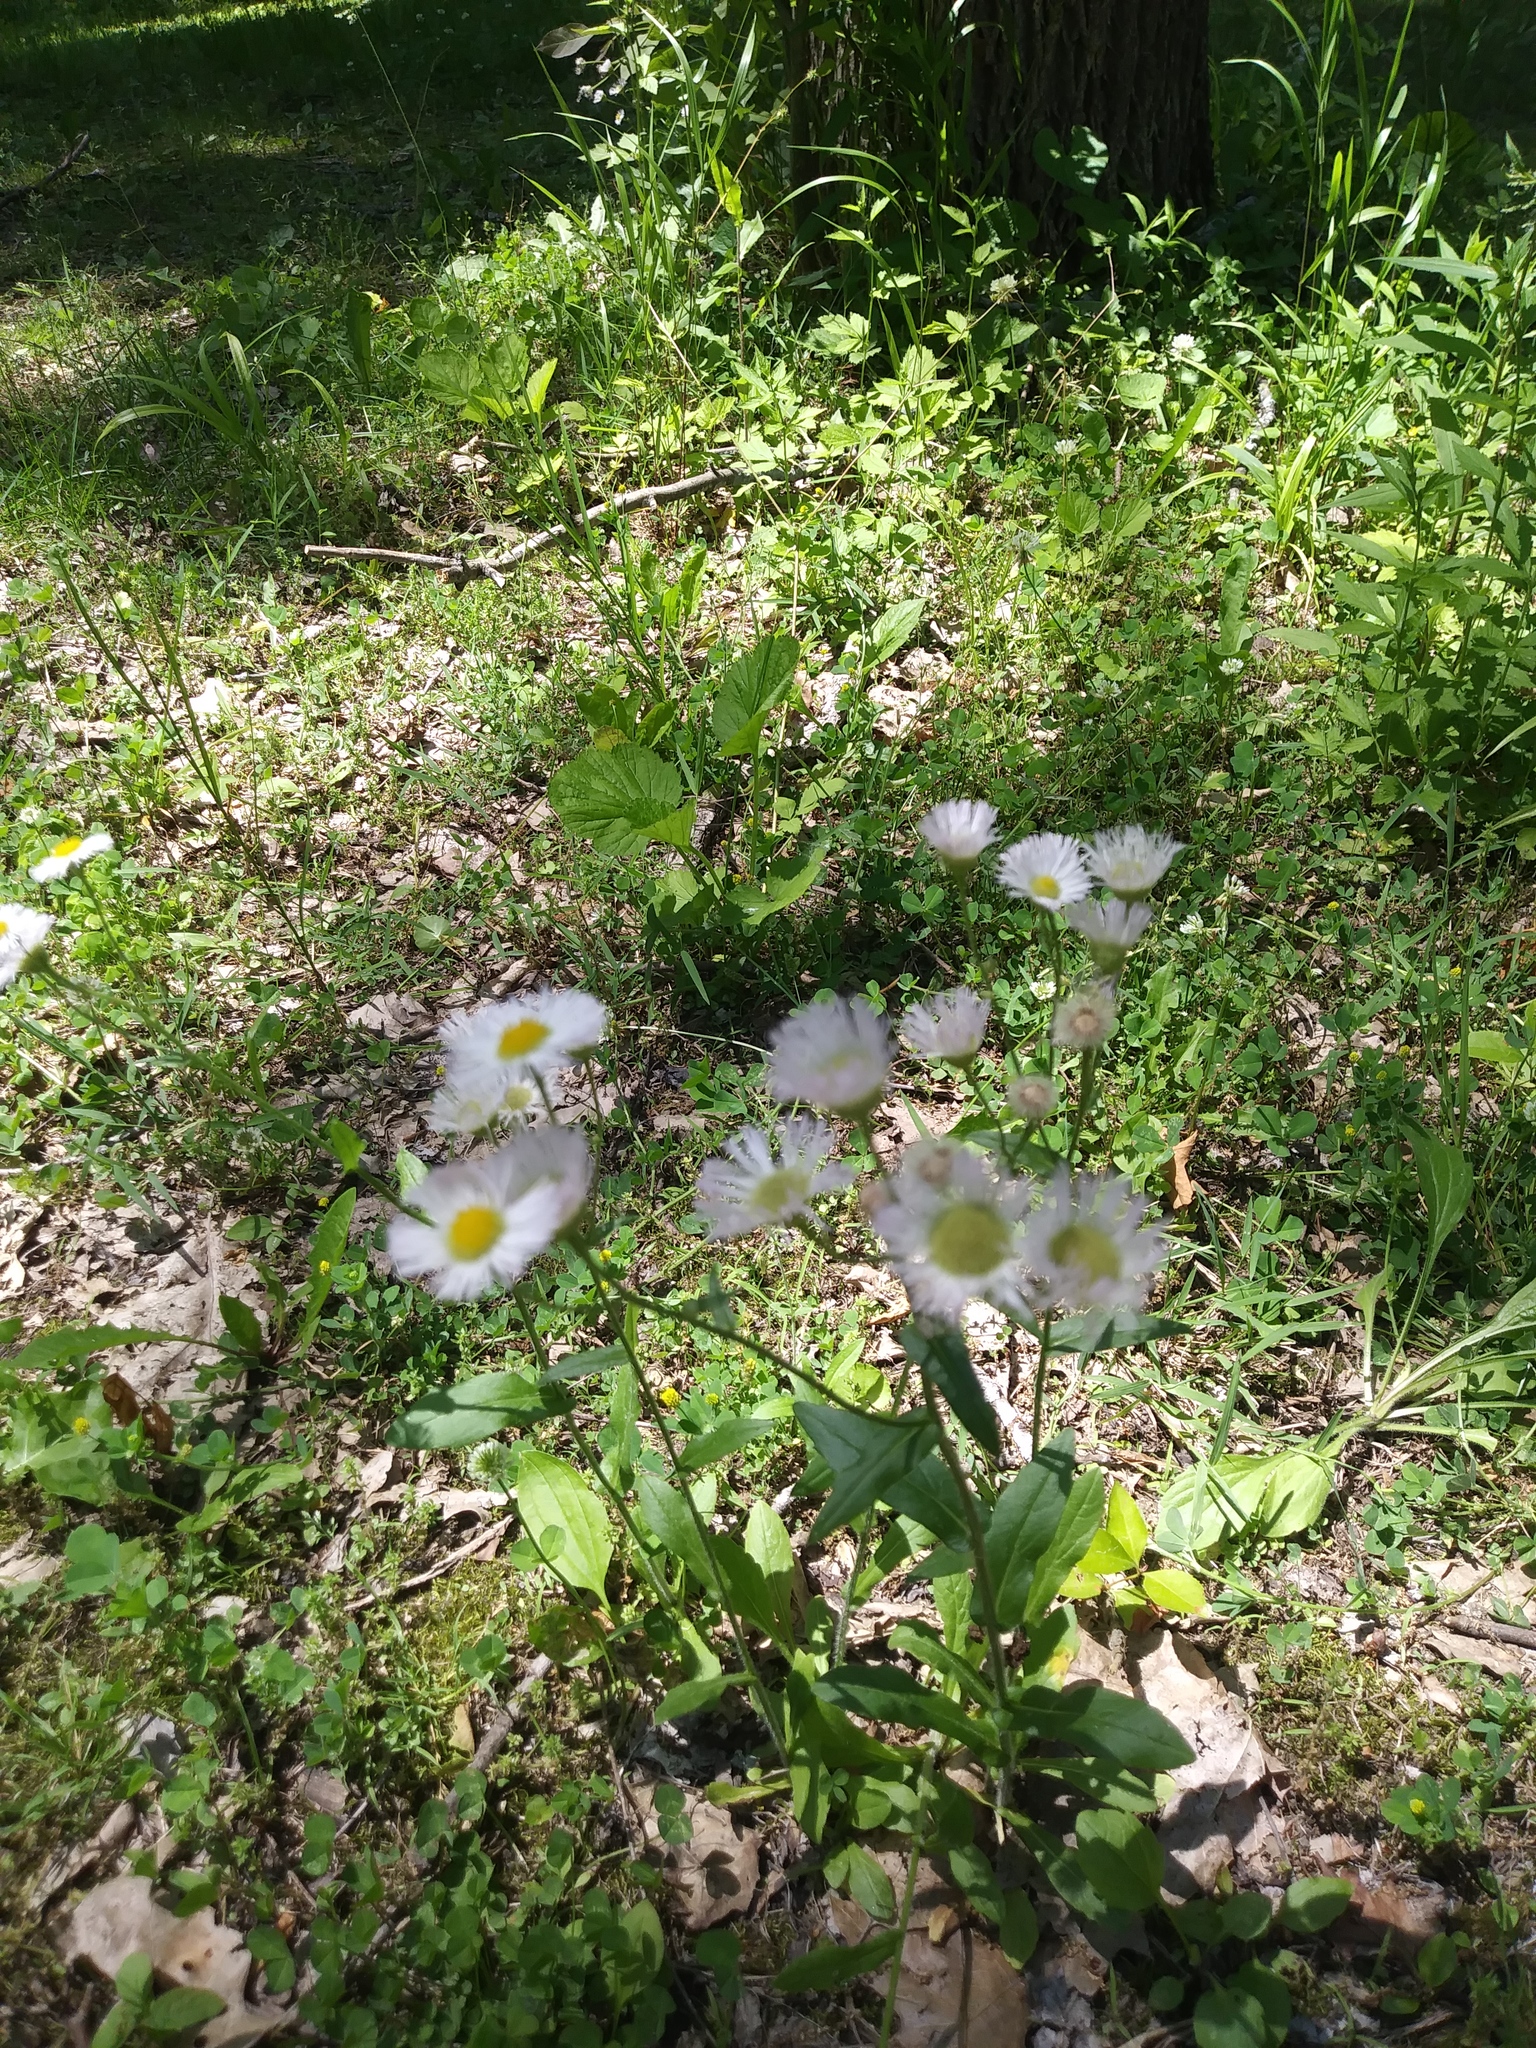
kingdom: Plantae
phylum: Tracheophyta
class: Magnoliopsida
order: Asterales
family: Asteraceae
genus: Erigeron
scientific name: Erigeron philadelphicus
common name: Robin's-plantain
